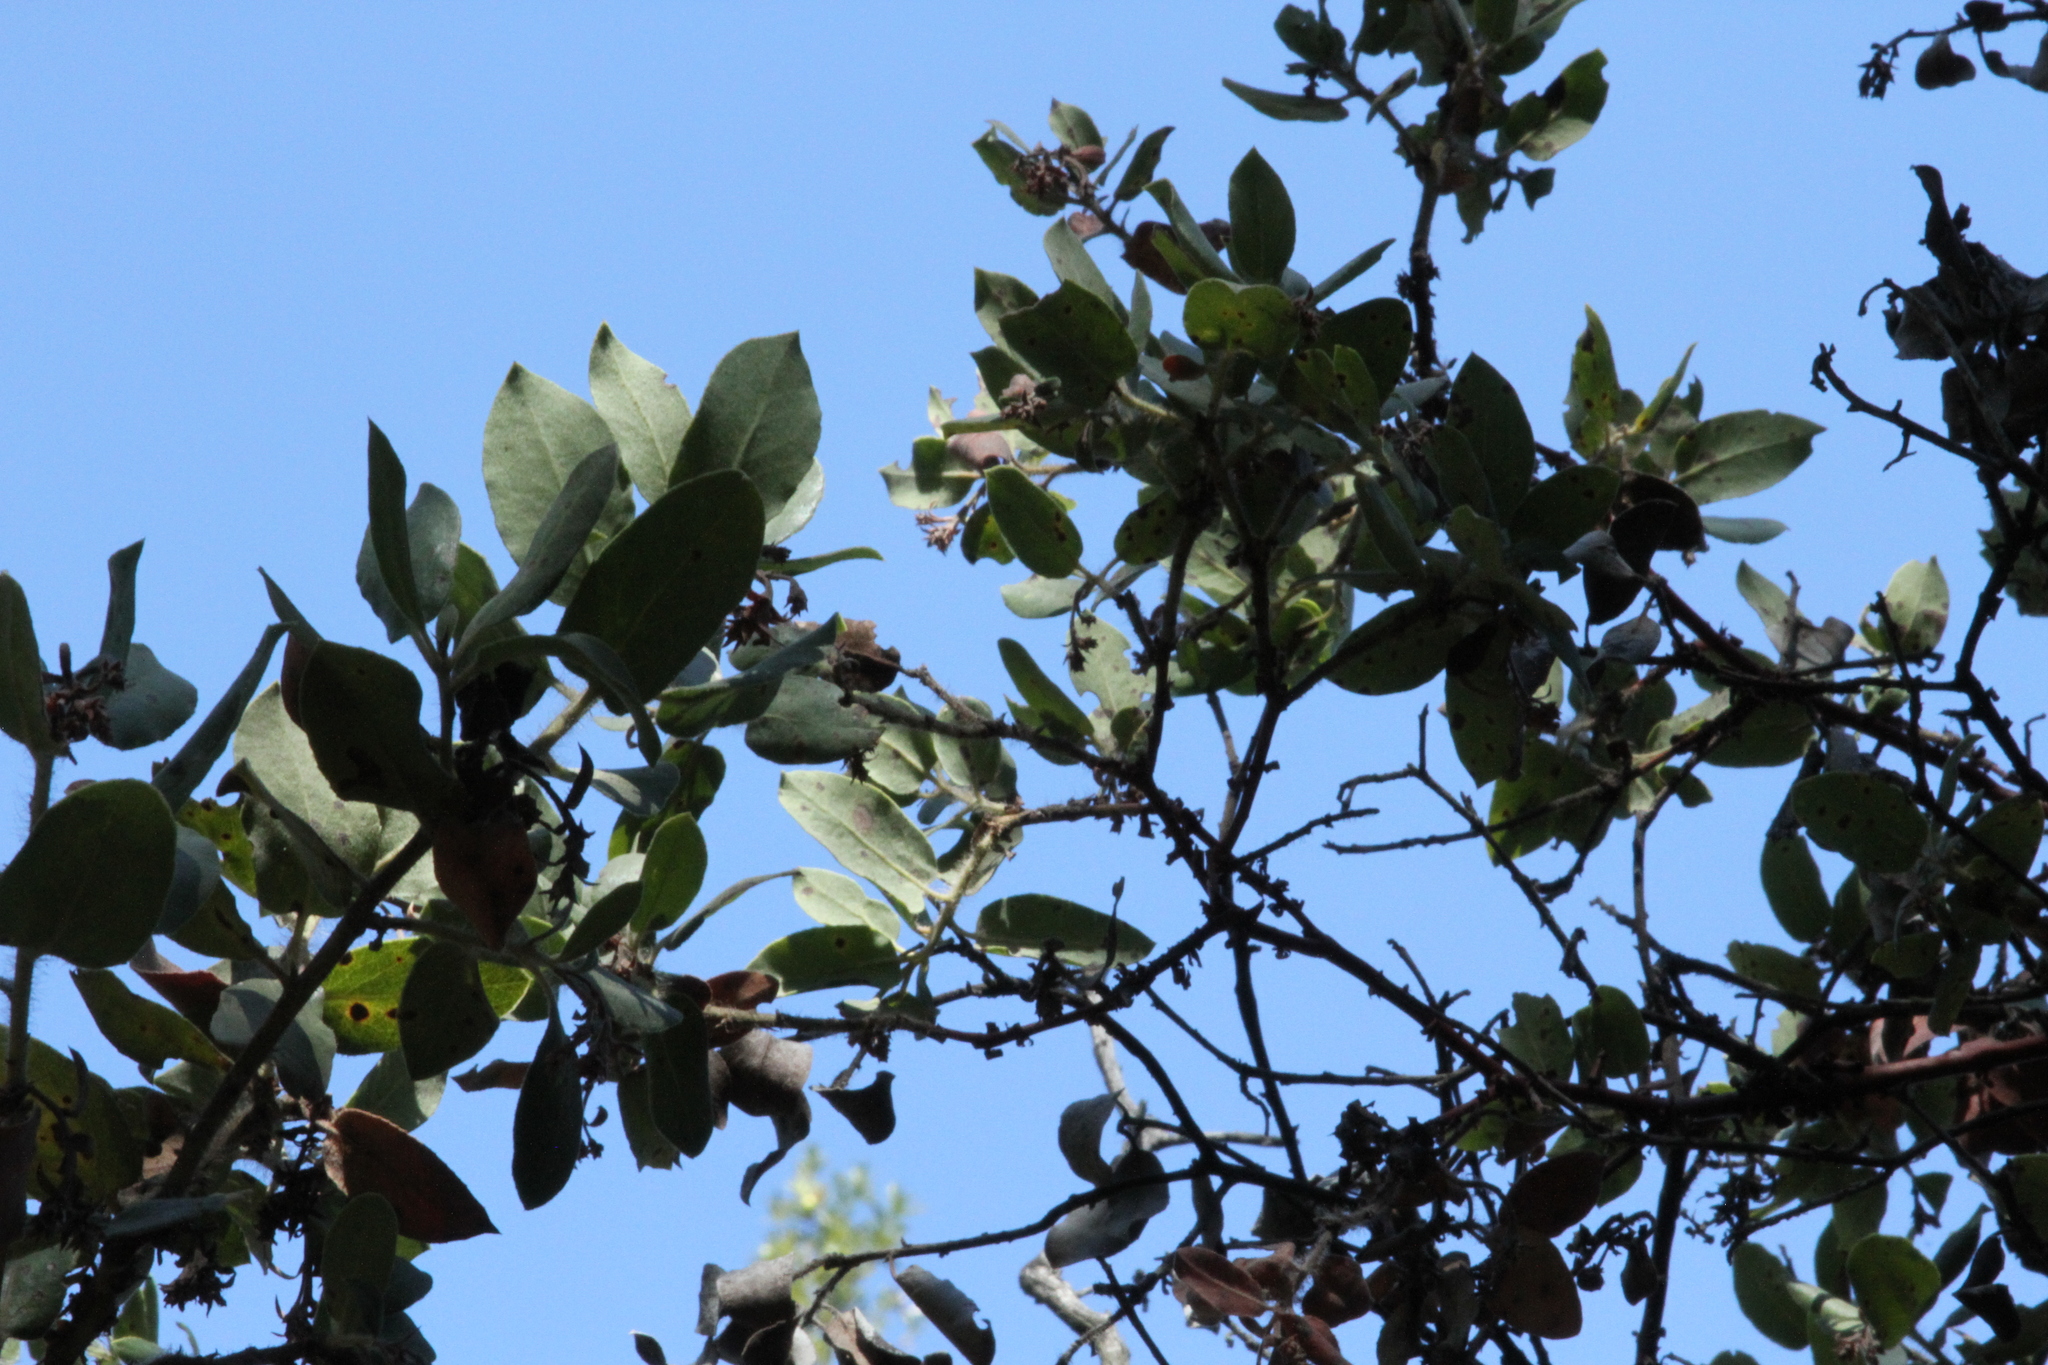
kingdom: Plantae
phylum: Tracheophyta
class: Magnoliopsida
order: Ericales
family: Ericaceae
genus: Arctostaphylos
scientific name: Arctostaphylos crustacea
